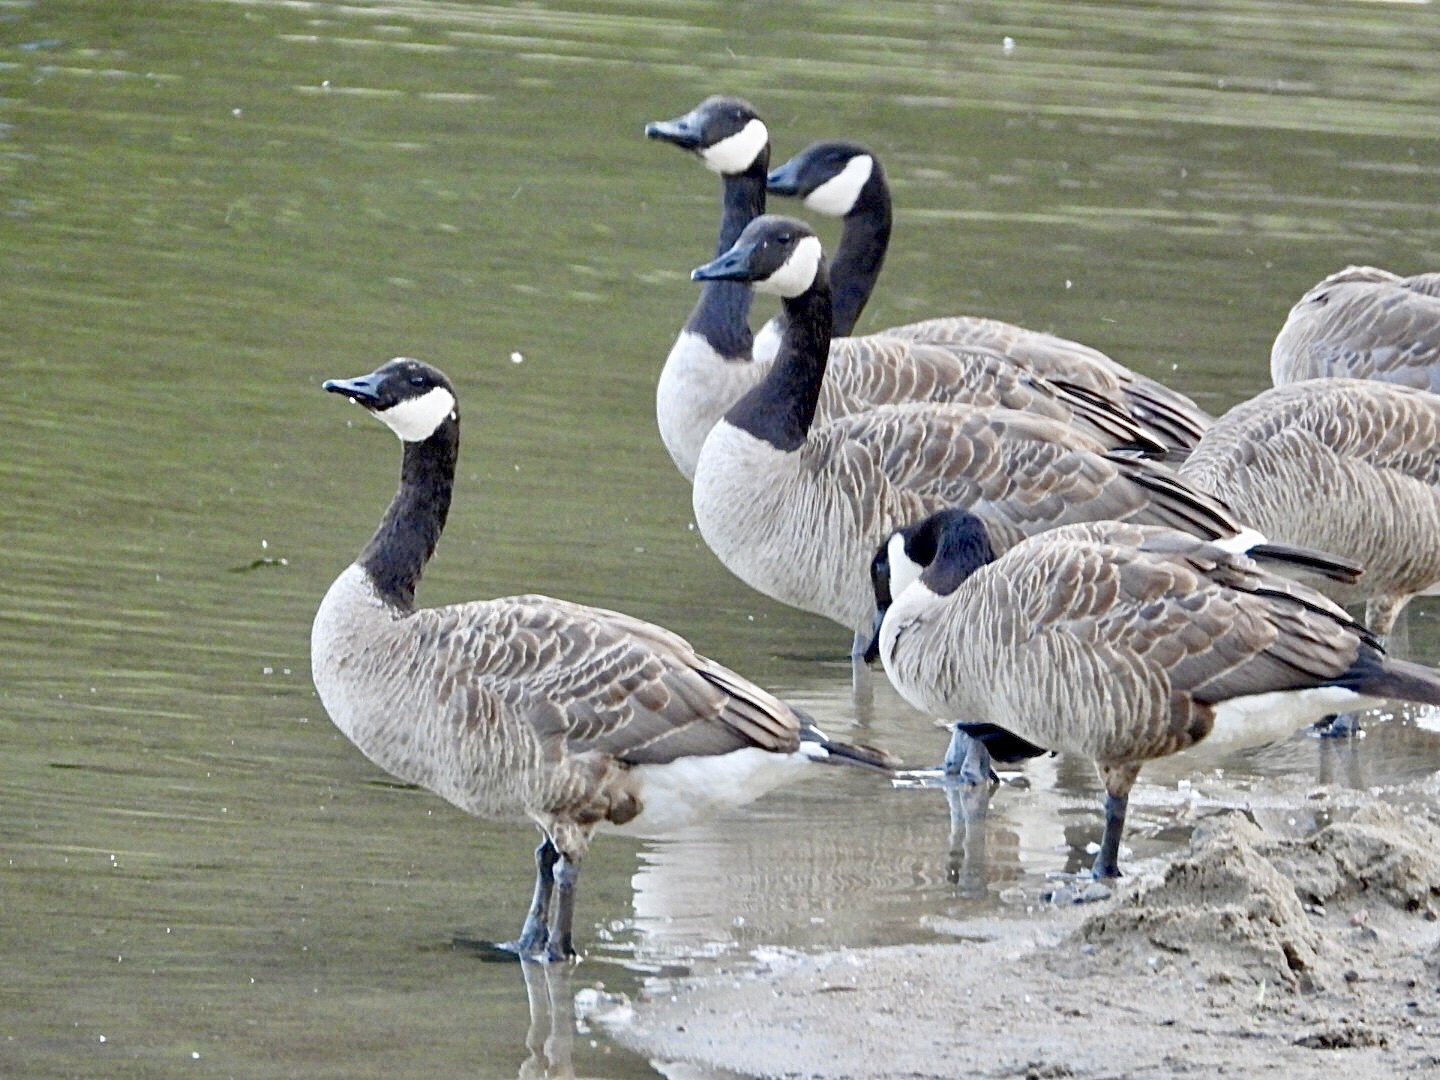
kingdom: Animalia
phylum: Chordata
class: Aves
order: Anseriformes
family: Anatidae
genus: Branta
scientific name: Branta canadensis
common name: Canada goose
